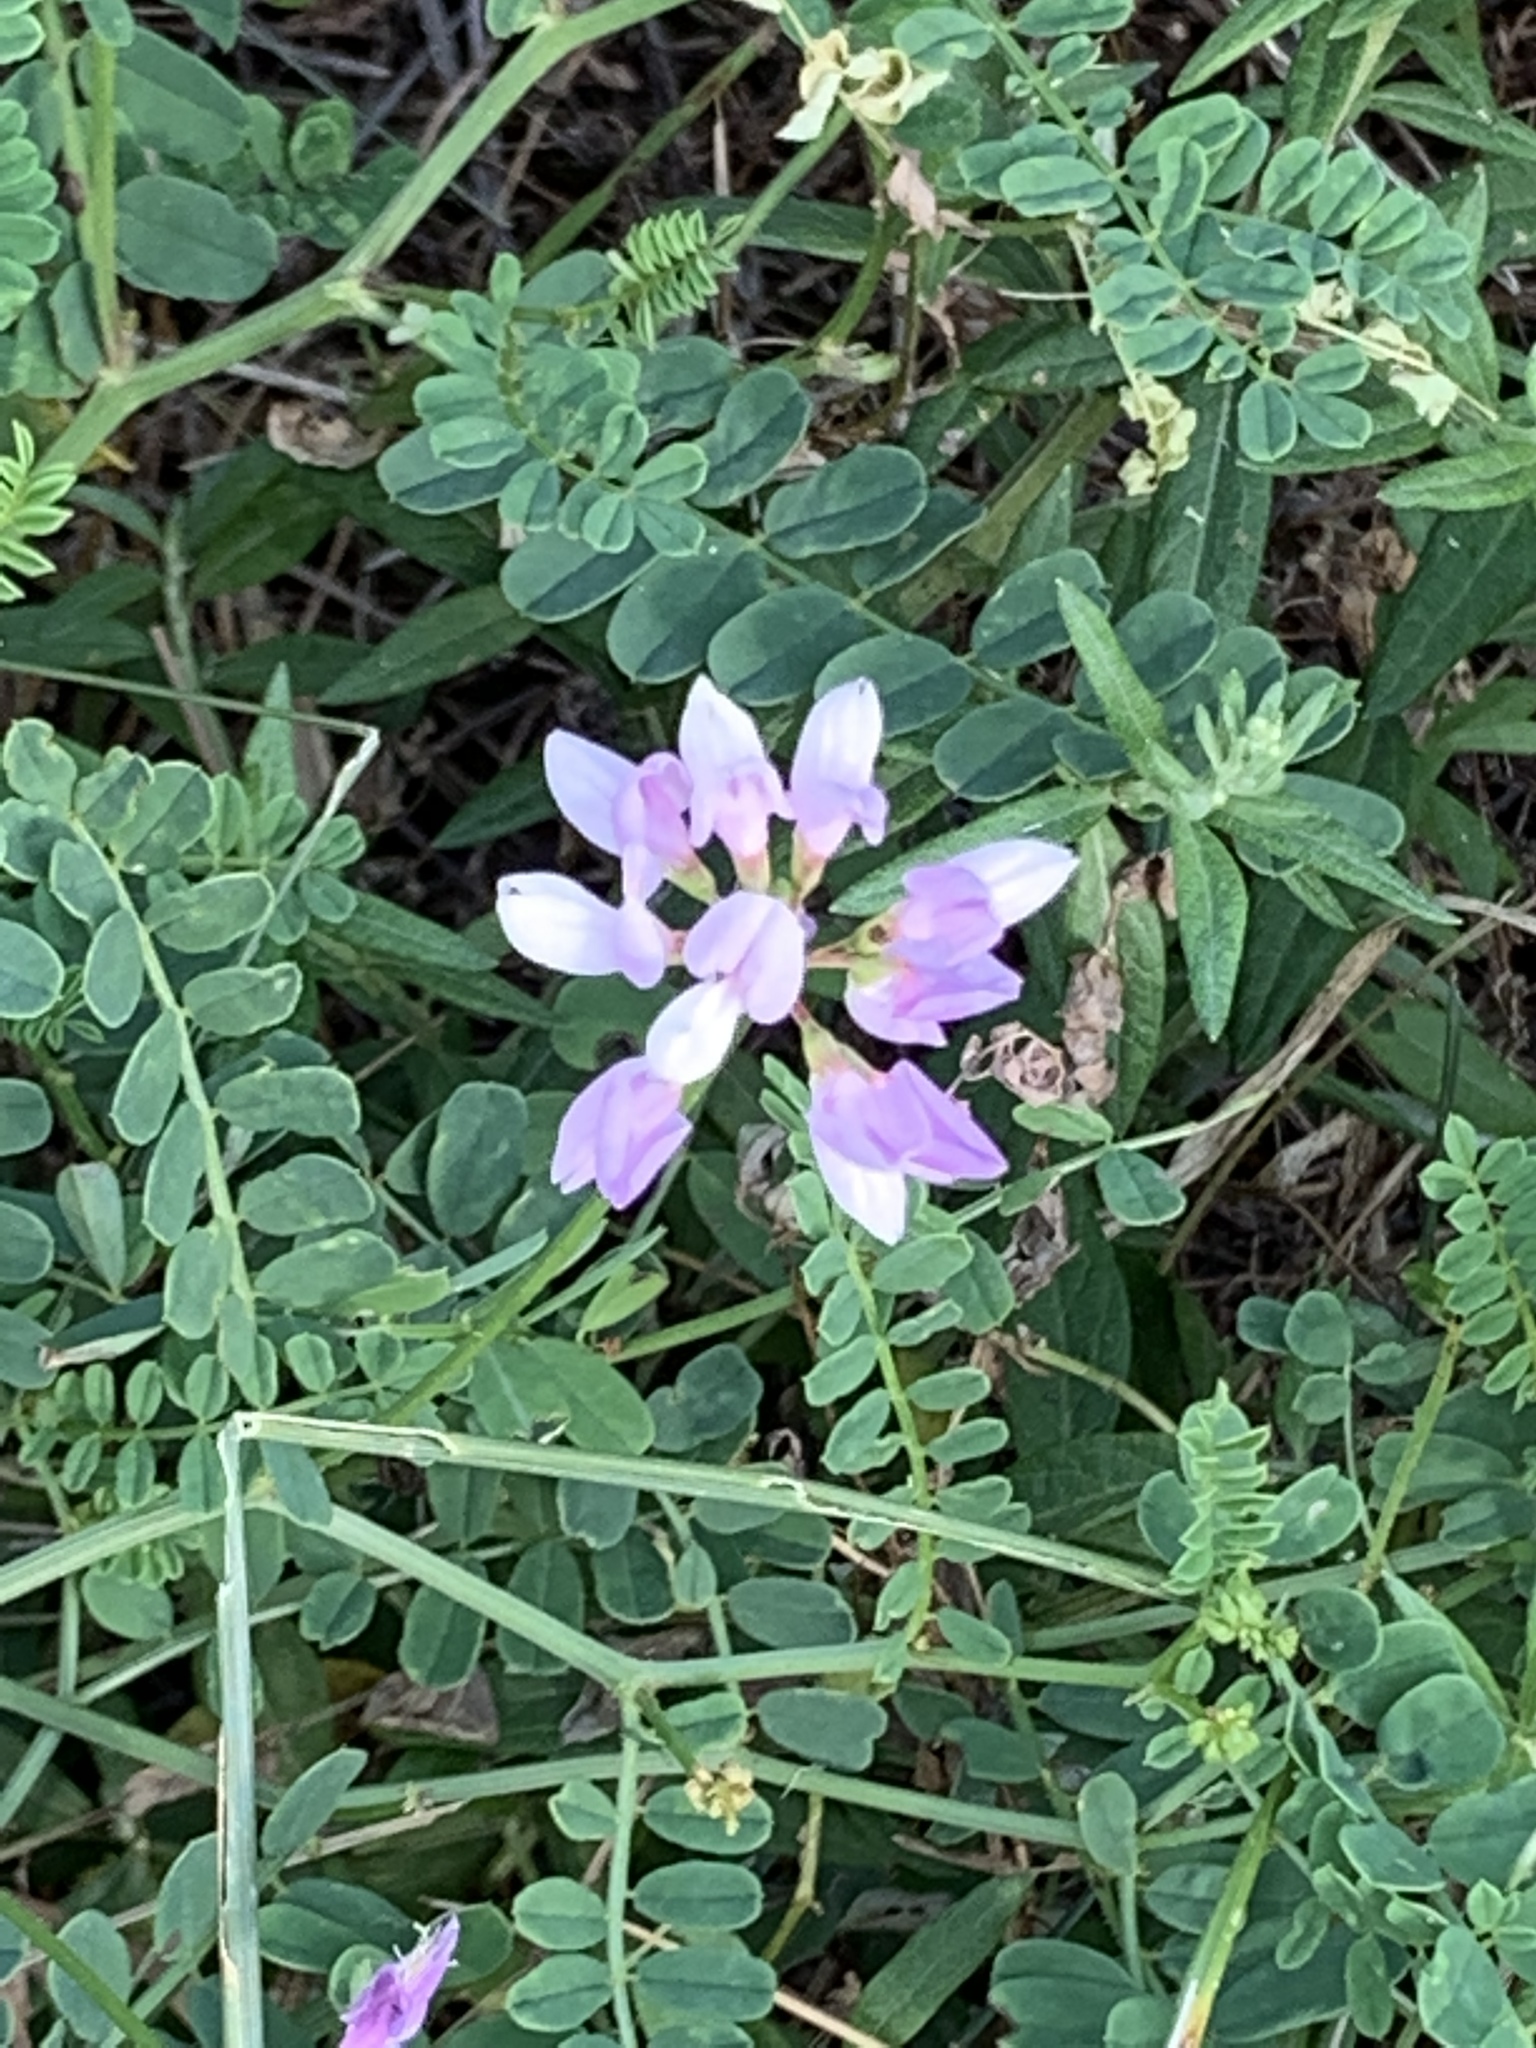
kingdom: Plantae
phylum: Tracheophyta
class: Magnoliopsida
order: Fabales
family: Fabaceae
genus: Coronilla
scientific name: Coronilla varia
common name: Crownvetch
